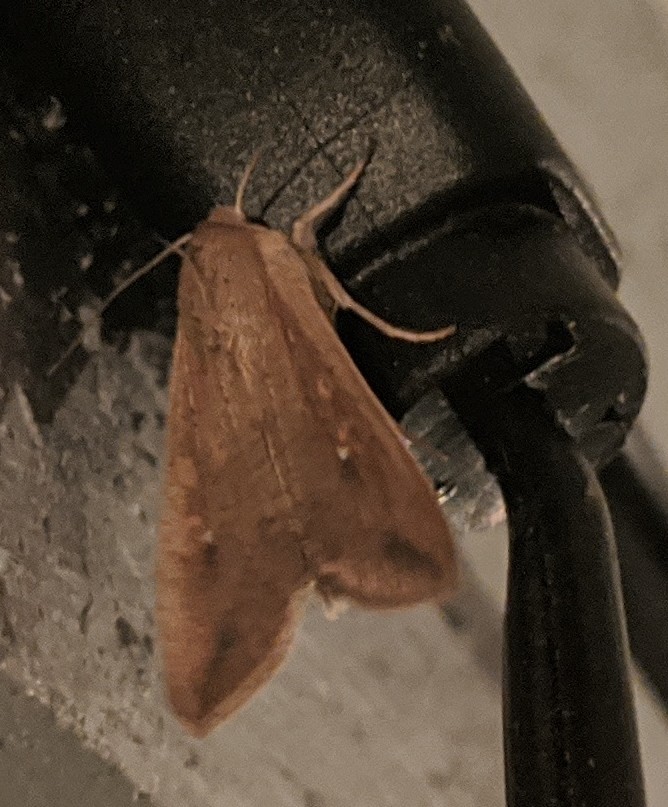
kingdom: Animalia
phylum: Arthropoda
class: Insecta
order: Lepidoptera
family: Noctuidae
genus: Mythimna
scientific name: Mythimna unipuncta
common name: White-speck
